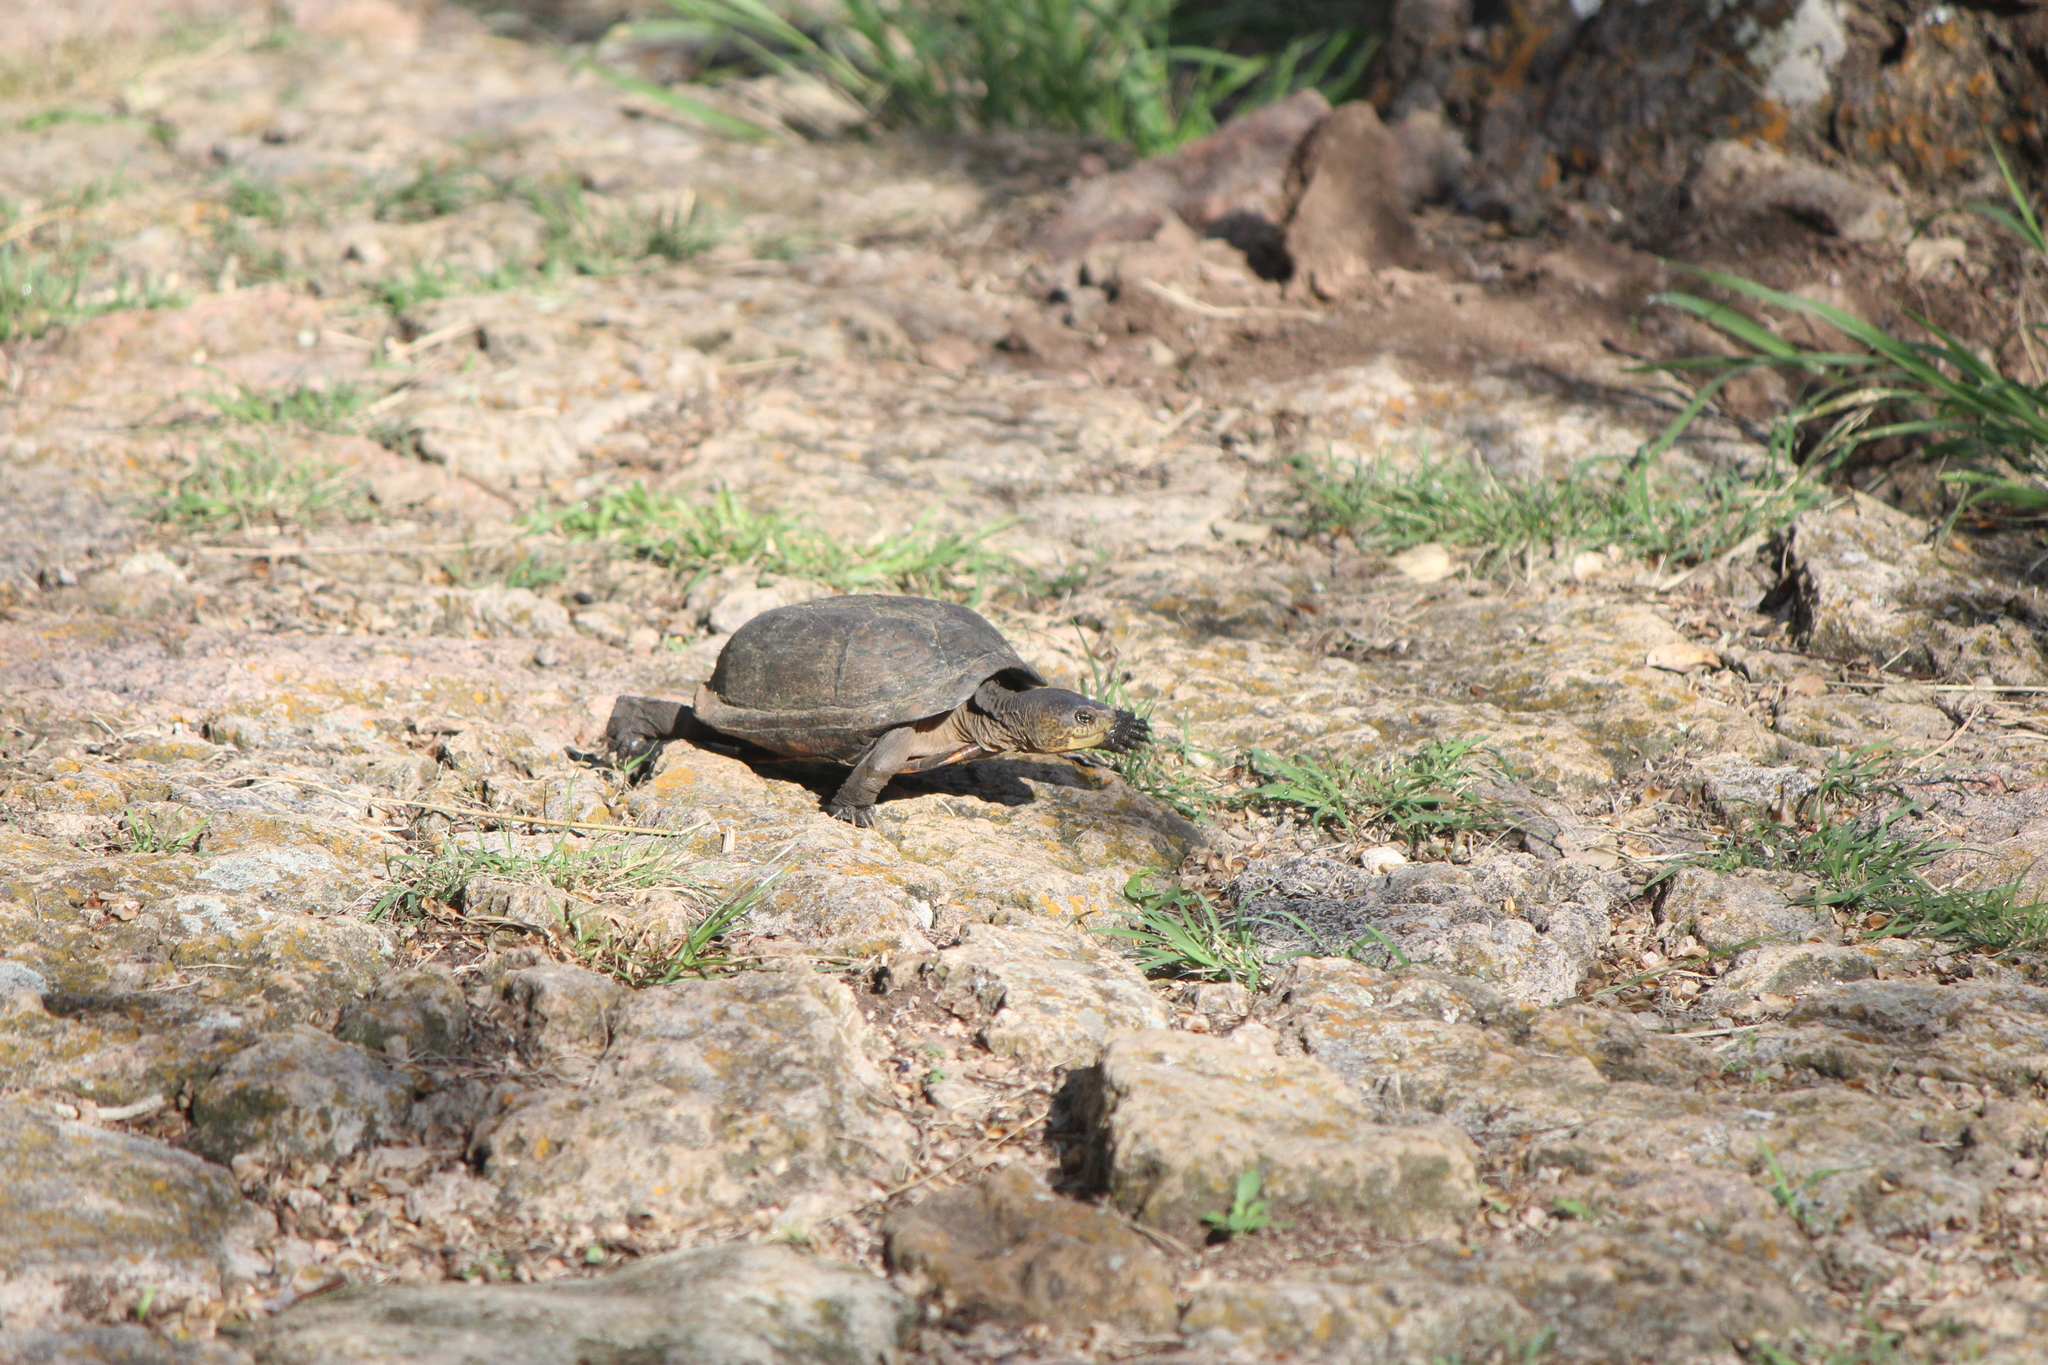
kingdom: Animalia
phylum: Chordata
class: Testudines
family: Kinosternidae
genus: Kinosternon
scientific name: Kinosternon integrum
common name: Mexican mud turtle
